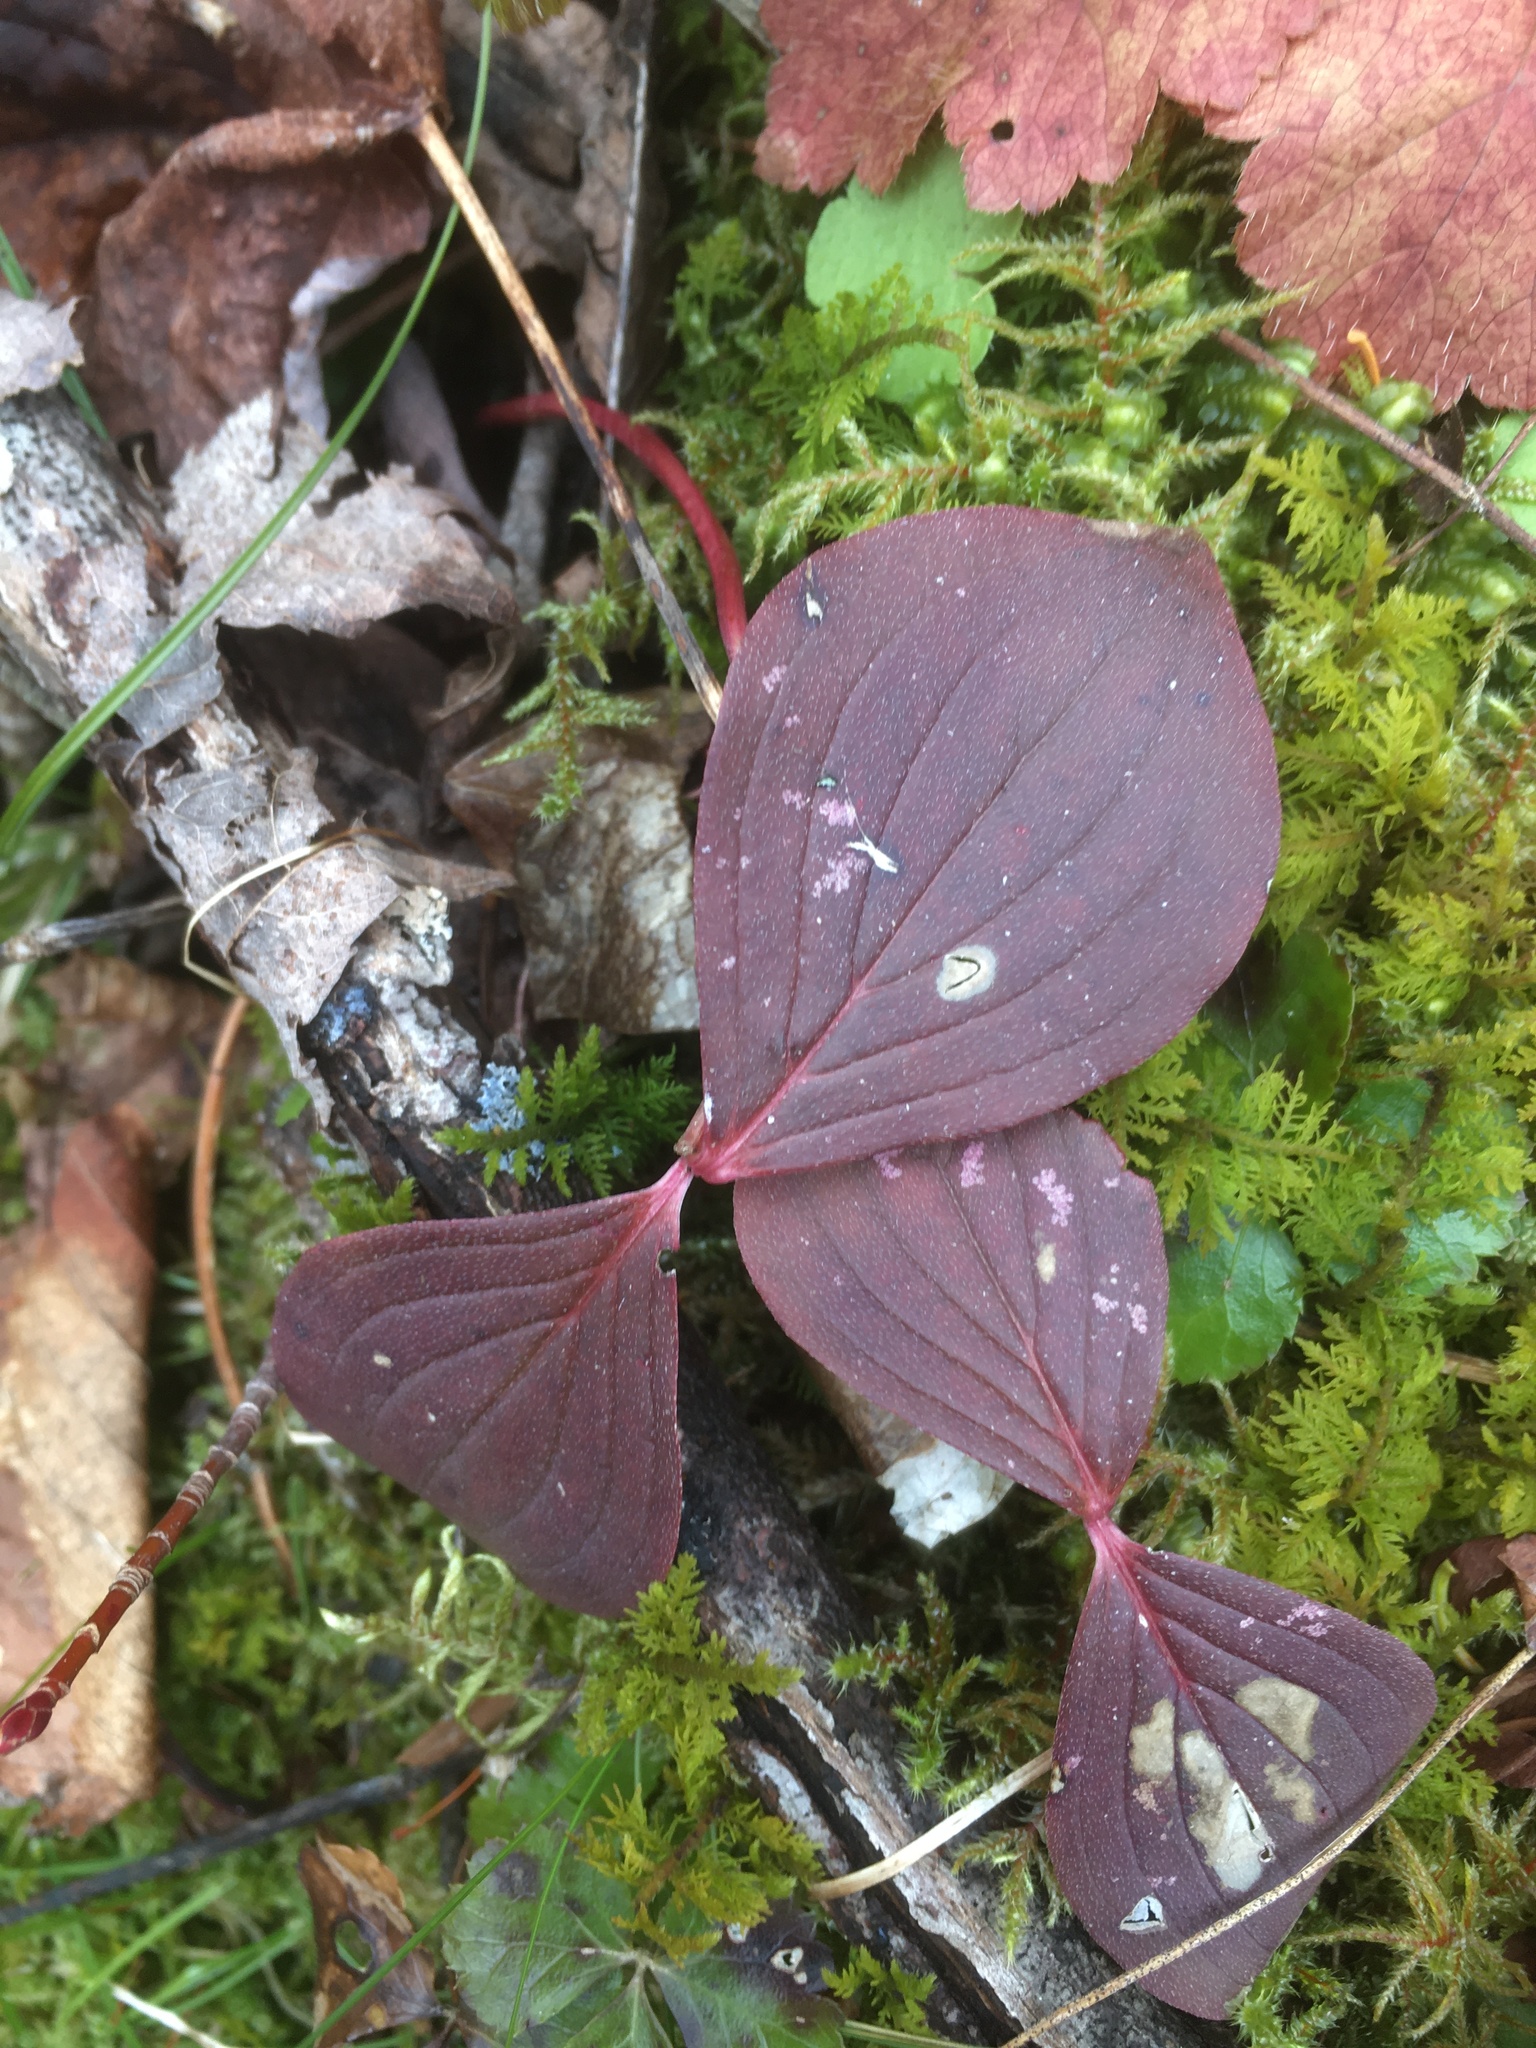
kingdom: Plantae
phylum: Tracheophyta
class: Magnoliopsida
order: Cornales
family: Cornaceae
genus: Cornus
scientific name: Cornus canadensis
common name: Creeping dogwood
